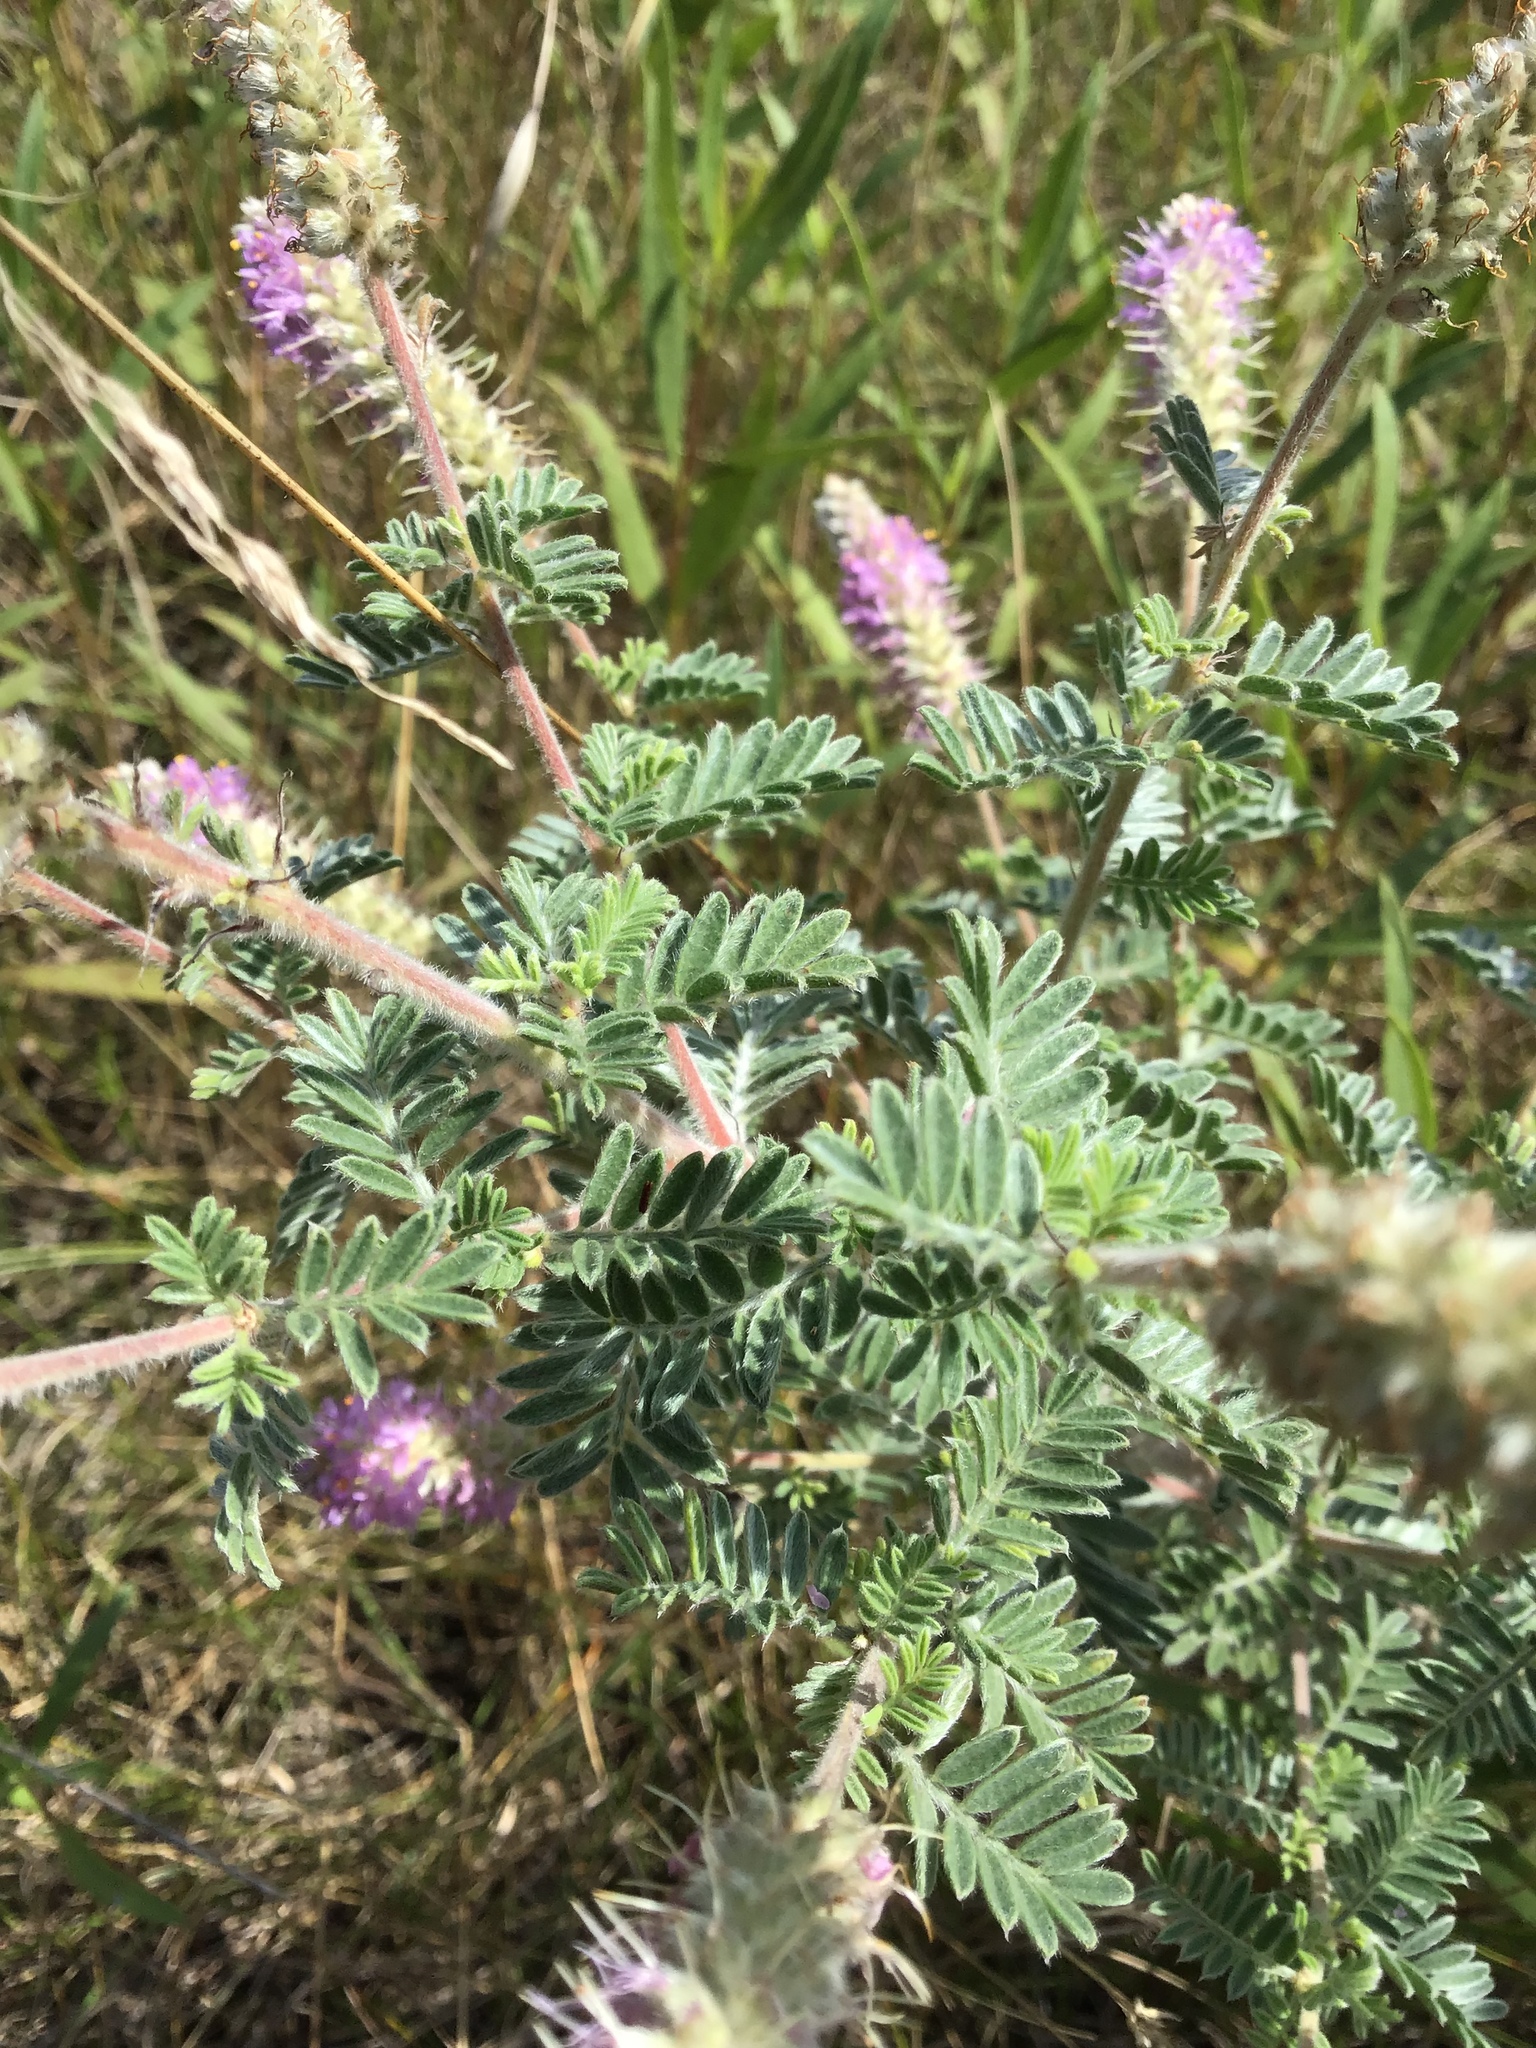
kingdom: Plantae
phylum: Tracheophyta
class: Magnoliopsida
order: Fabales
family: Fabaceae
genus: Dalea
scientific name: Dalea villosa
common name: Silky prairie-clover
